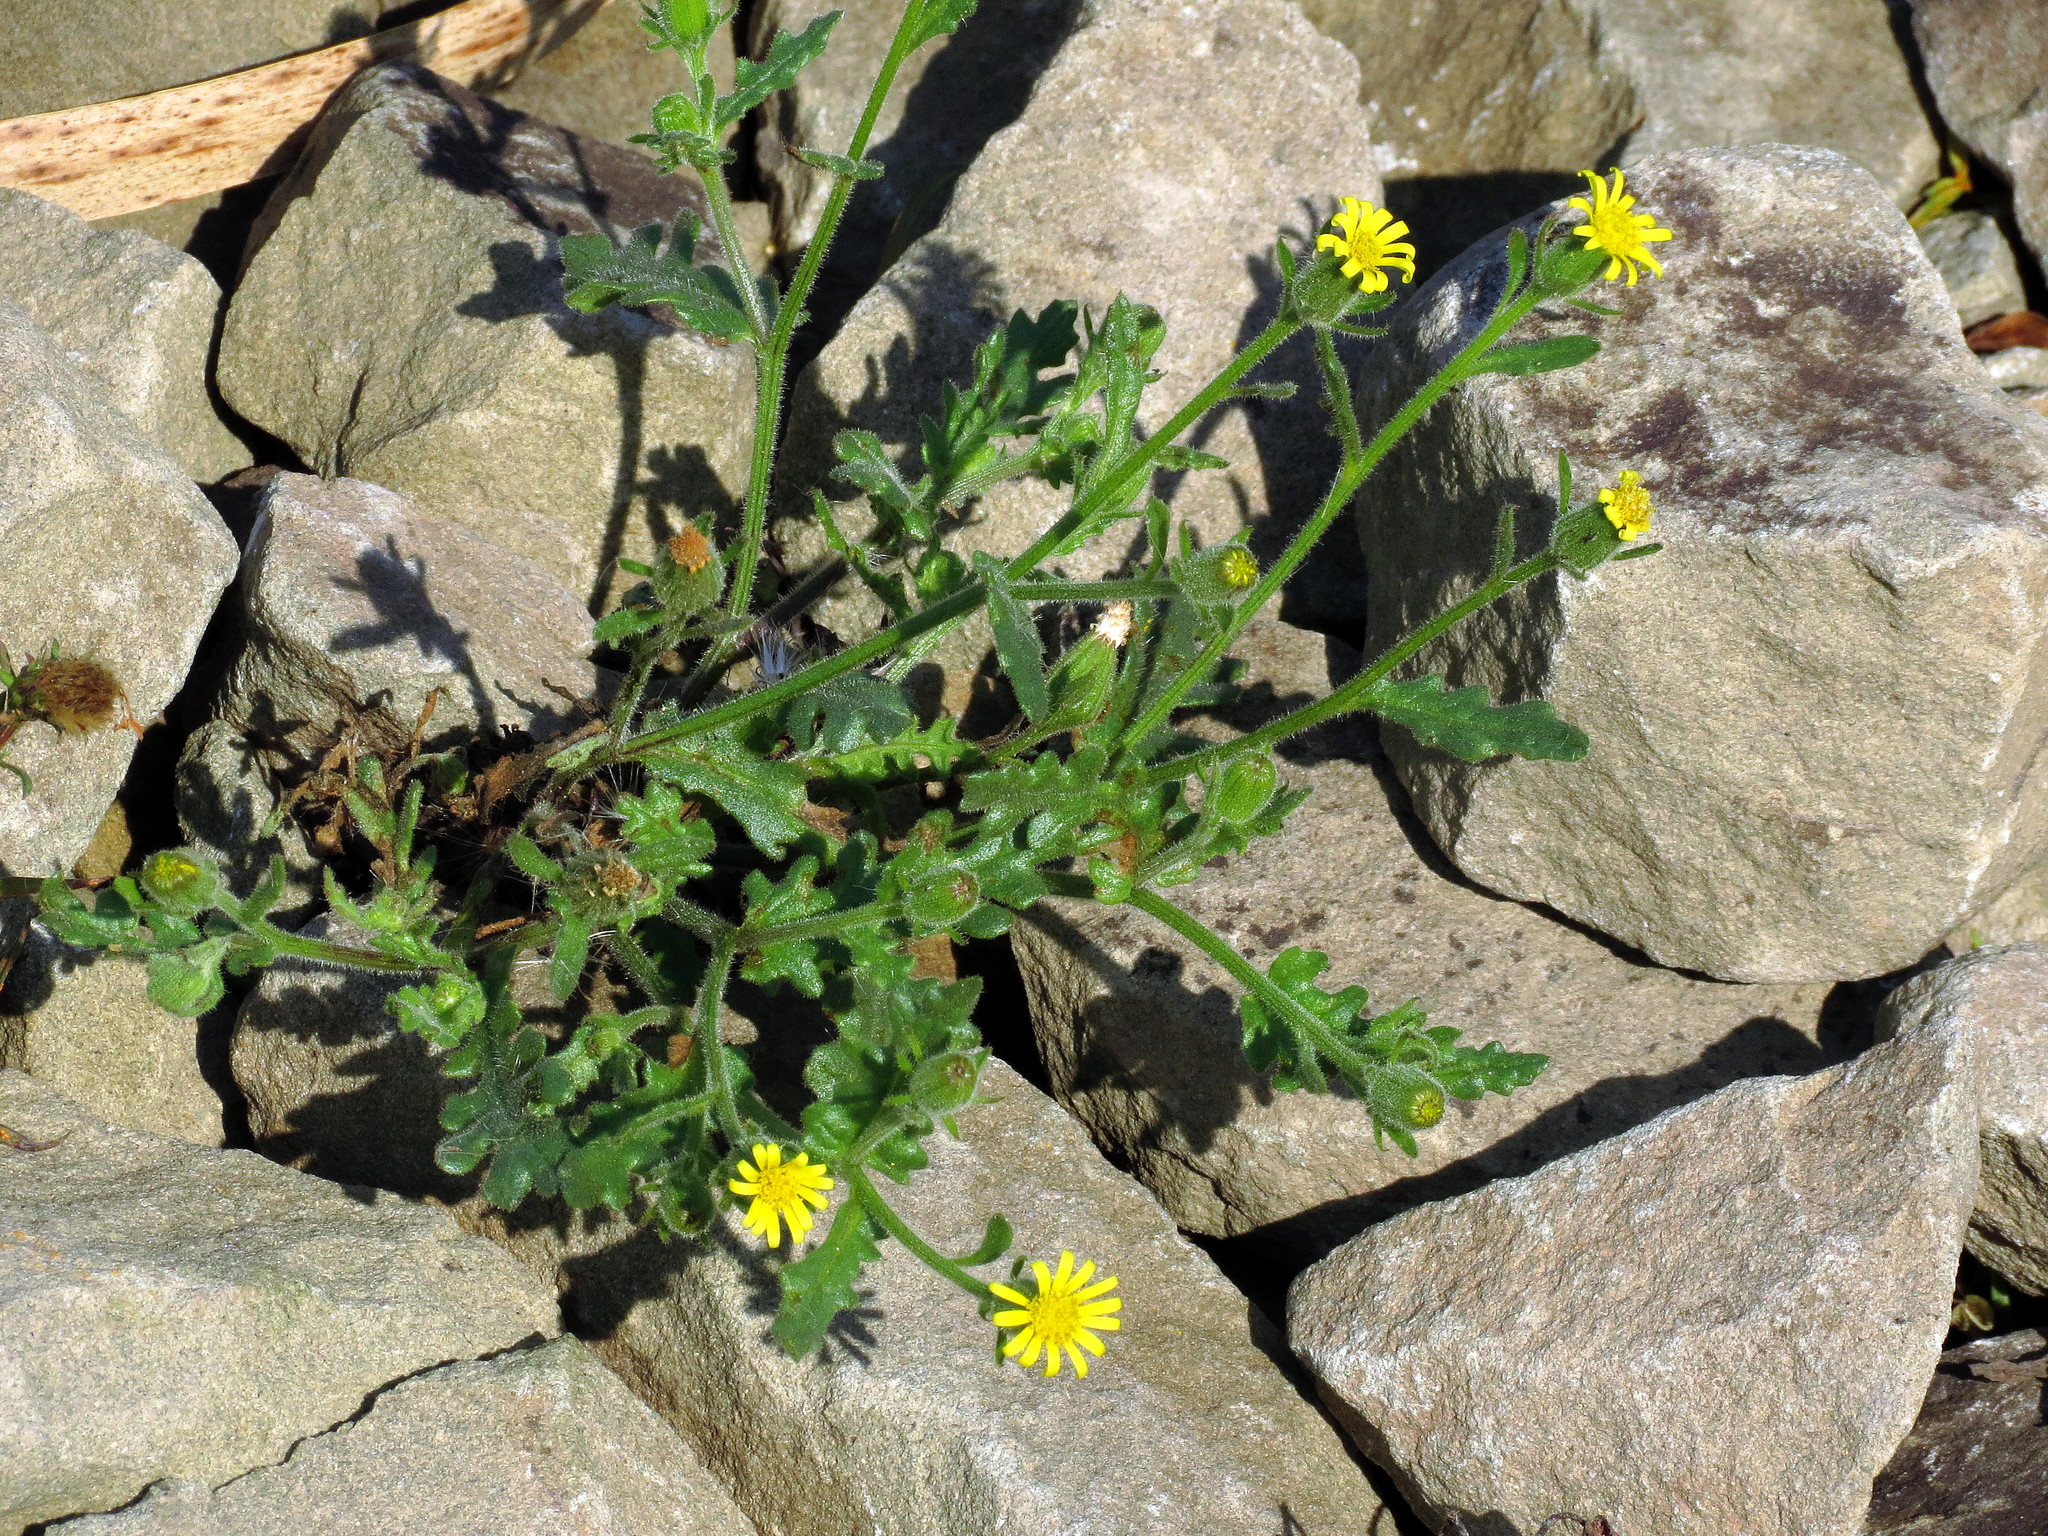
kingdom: Plantae
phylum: Tracheophyta
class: Magnoliopsida
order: Asterales
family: Asteraceae
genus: Senecio
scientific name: Senecio viscosus
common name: Sticky groundsel
